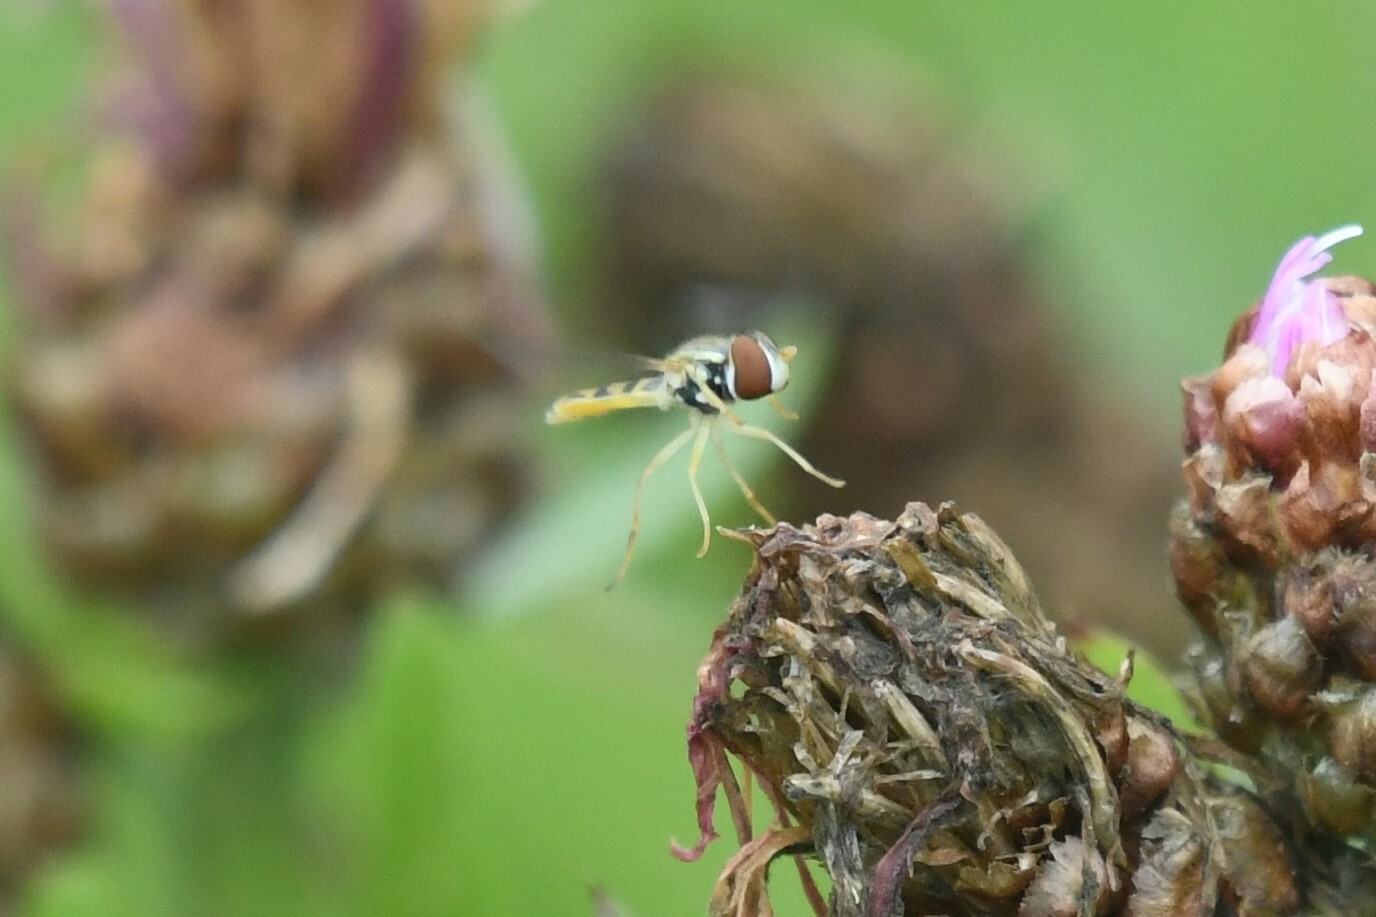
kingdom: Animalia
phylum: Arthropoda
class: Insecta
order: Diptera
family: Syrphidae
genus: Toxomerus
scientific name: Toxomerus marginatus
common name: Syrphid fly
